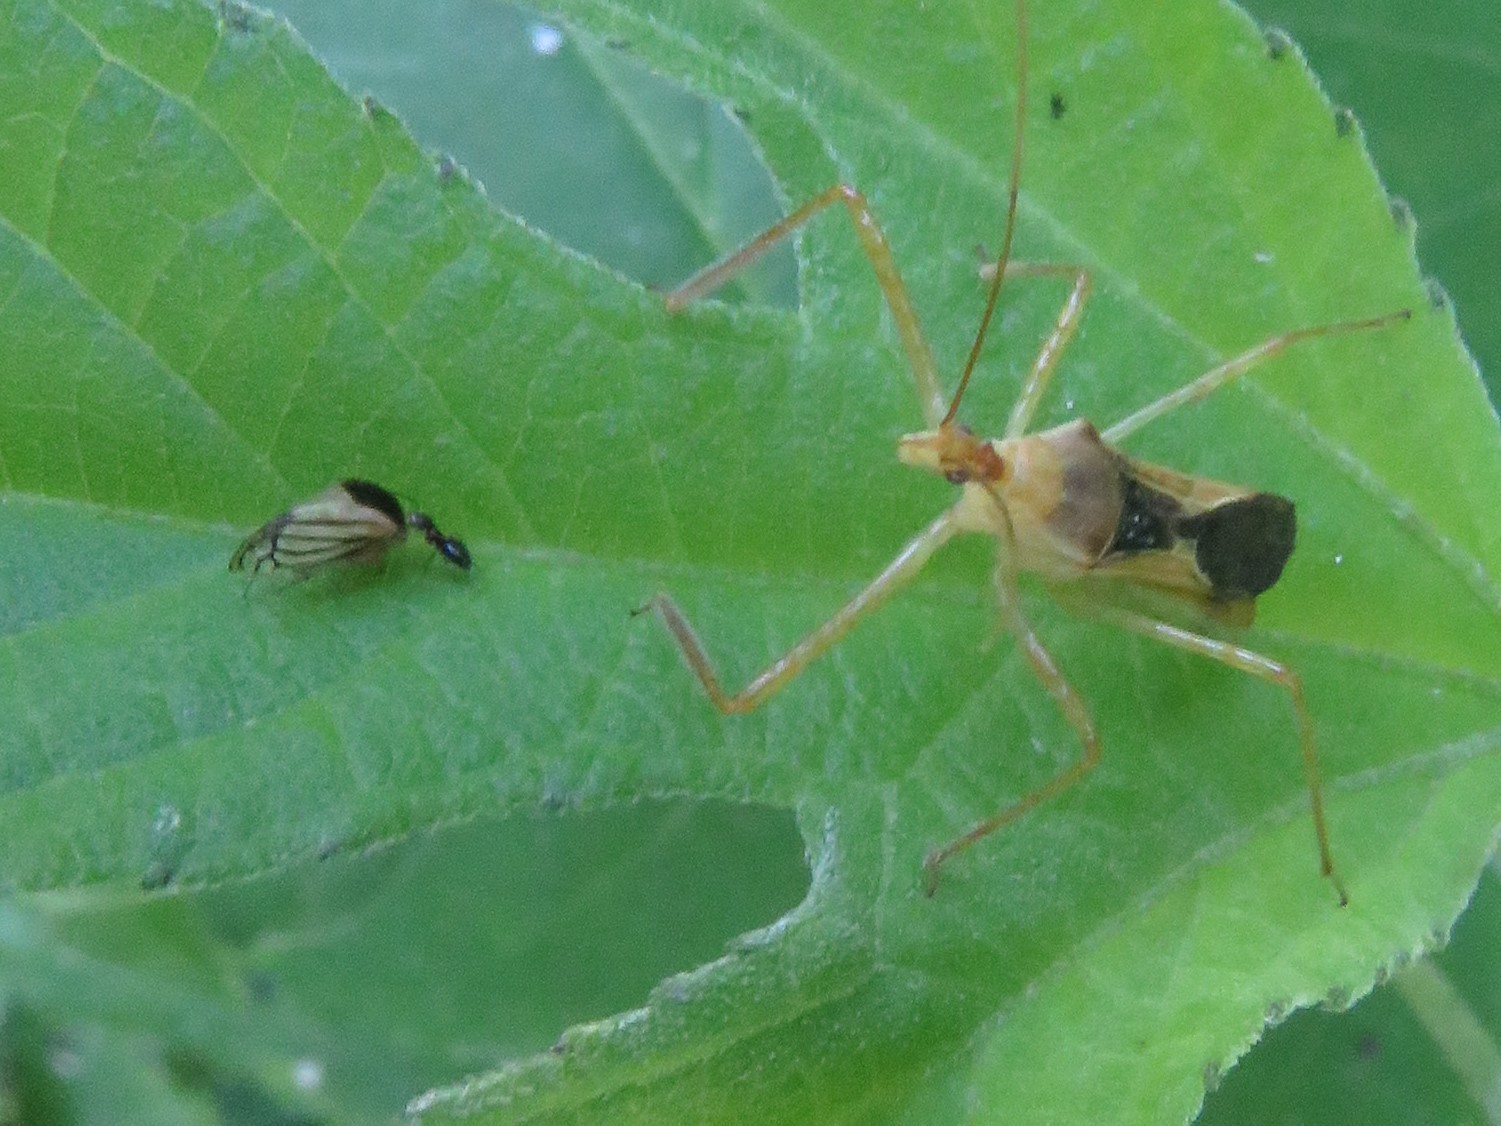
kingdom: Animalia
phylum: Arthropoda
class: Insecta
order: Hemiptera
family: Membracidae
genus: Acutalis
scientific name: Acutalis tartarea
